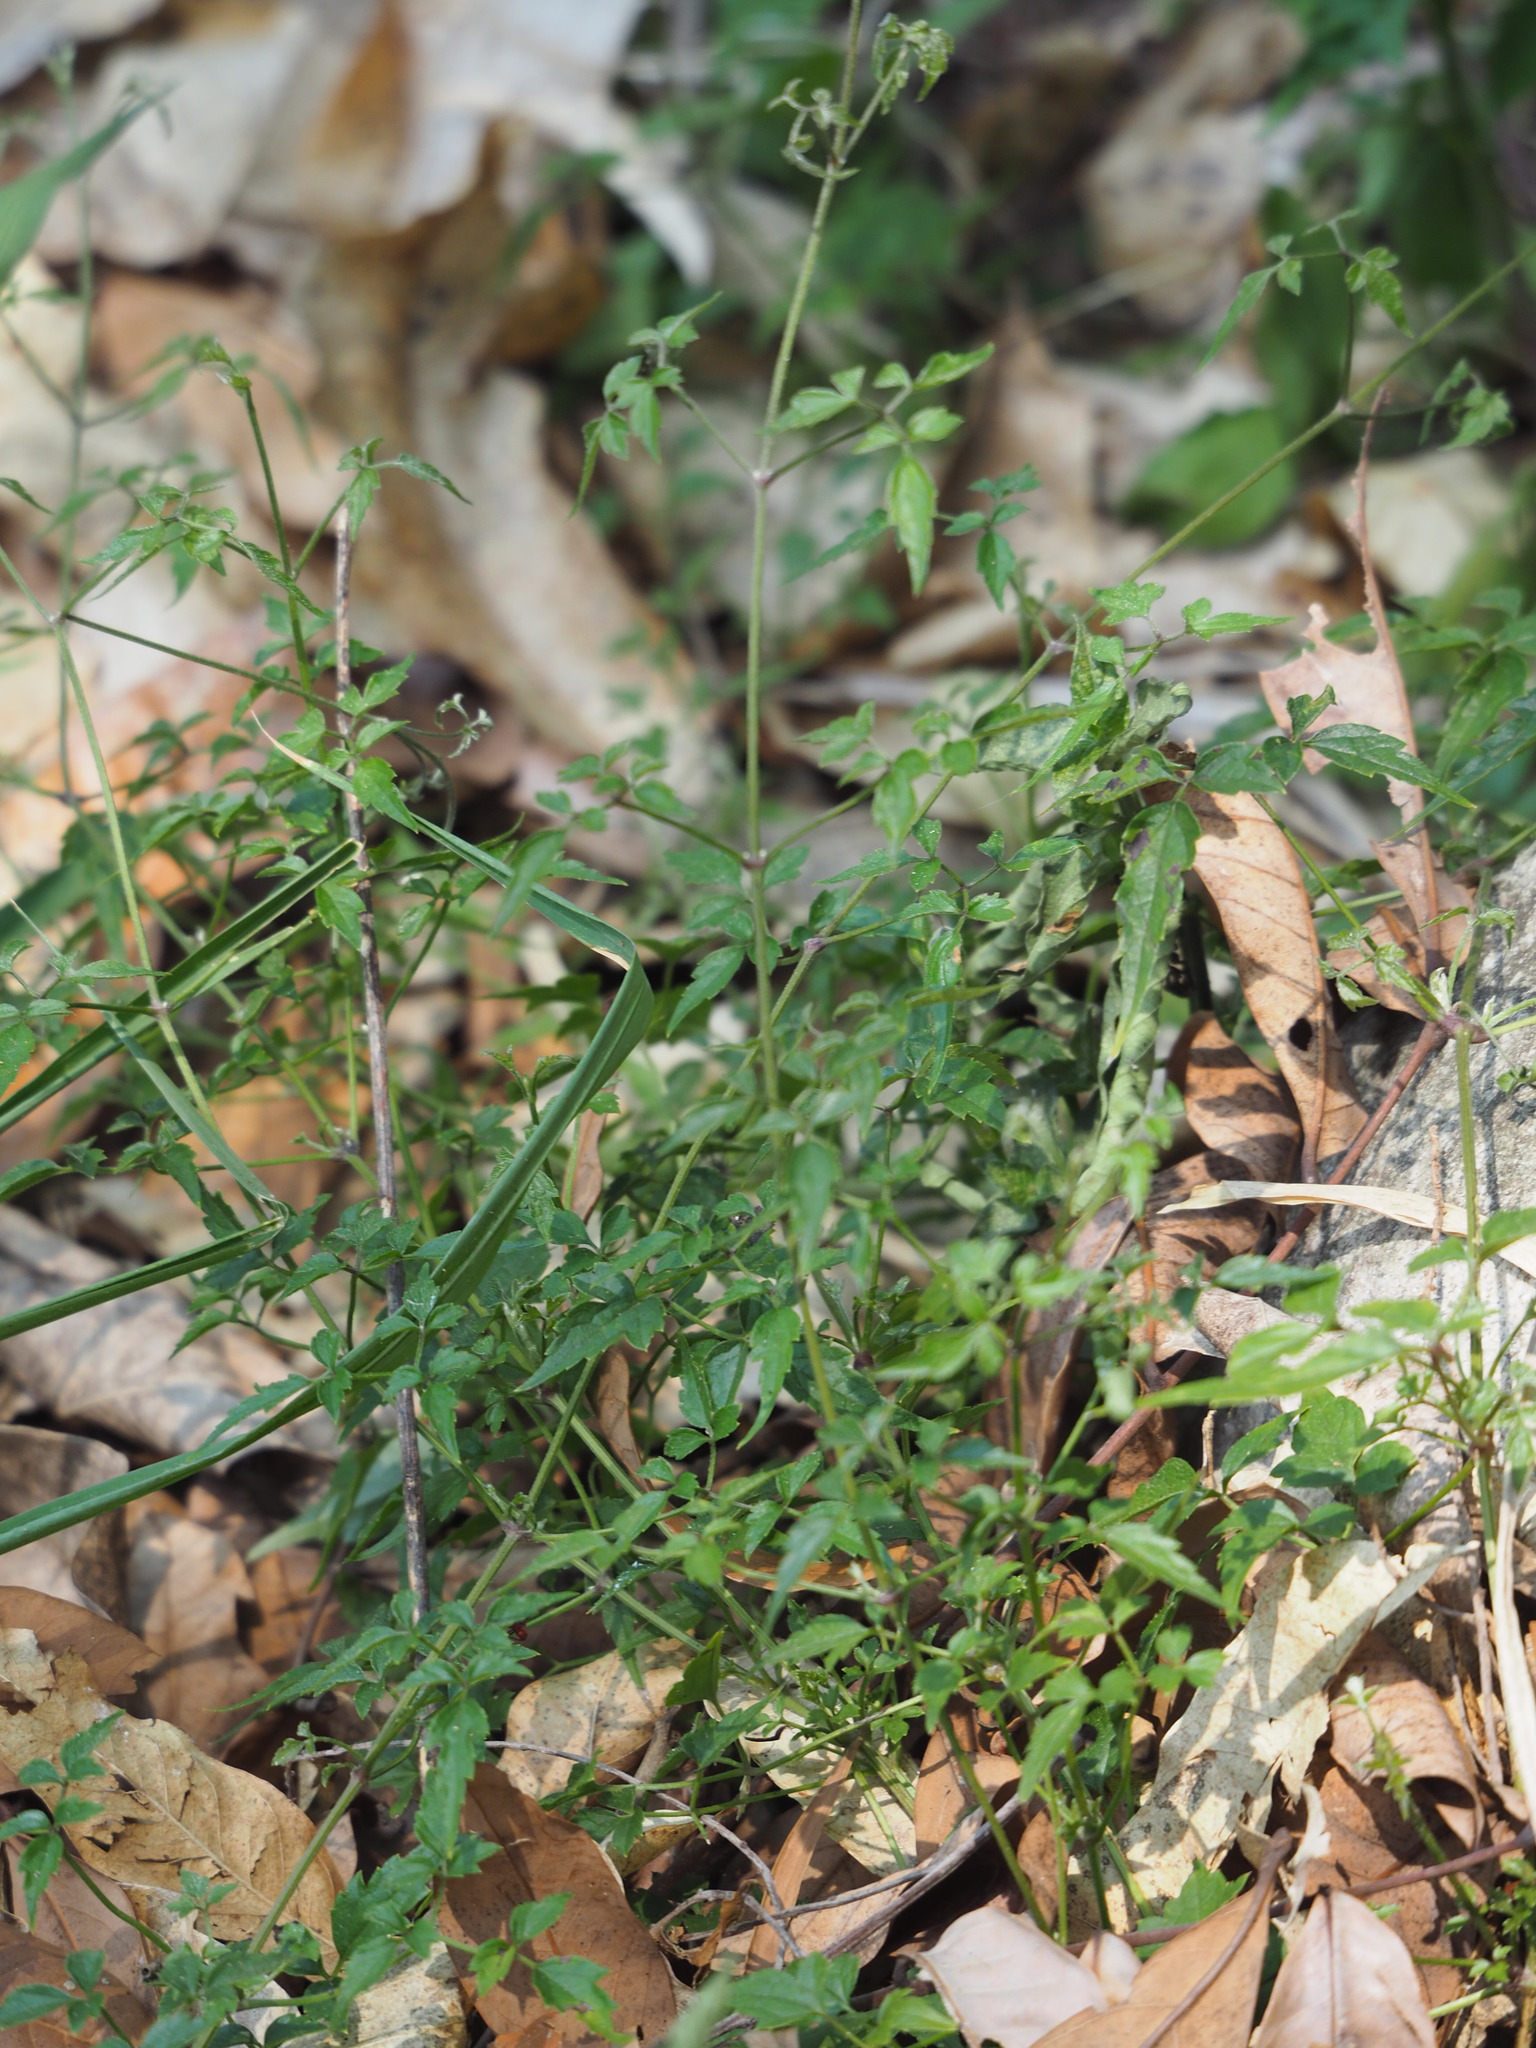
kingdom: Plantae
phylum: Tracheophyta
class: Magnoliopsida
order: Ranunculales
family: Ranunculaceae
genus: Clematis
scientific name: Clematis grata
